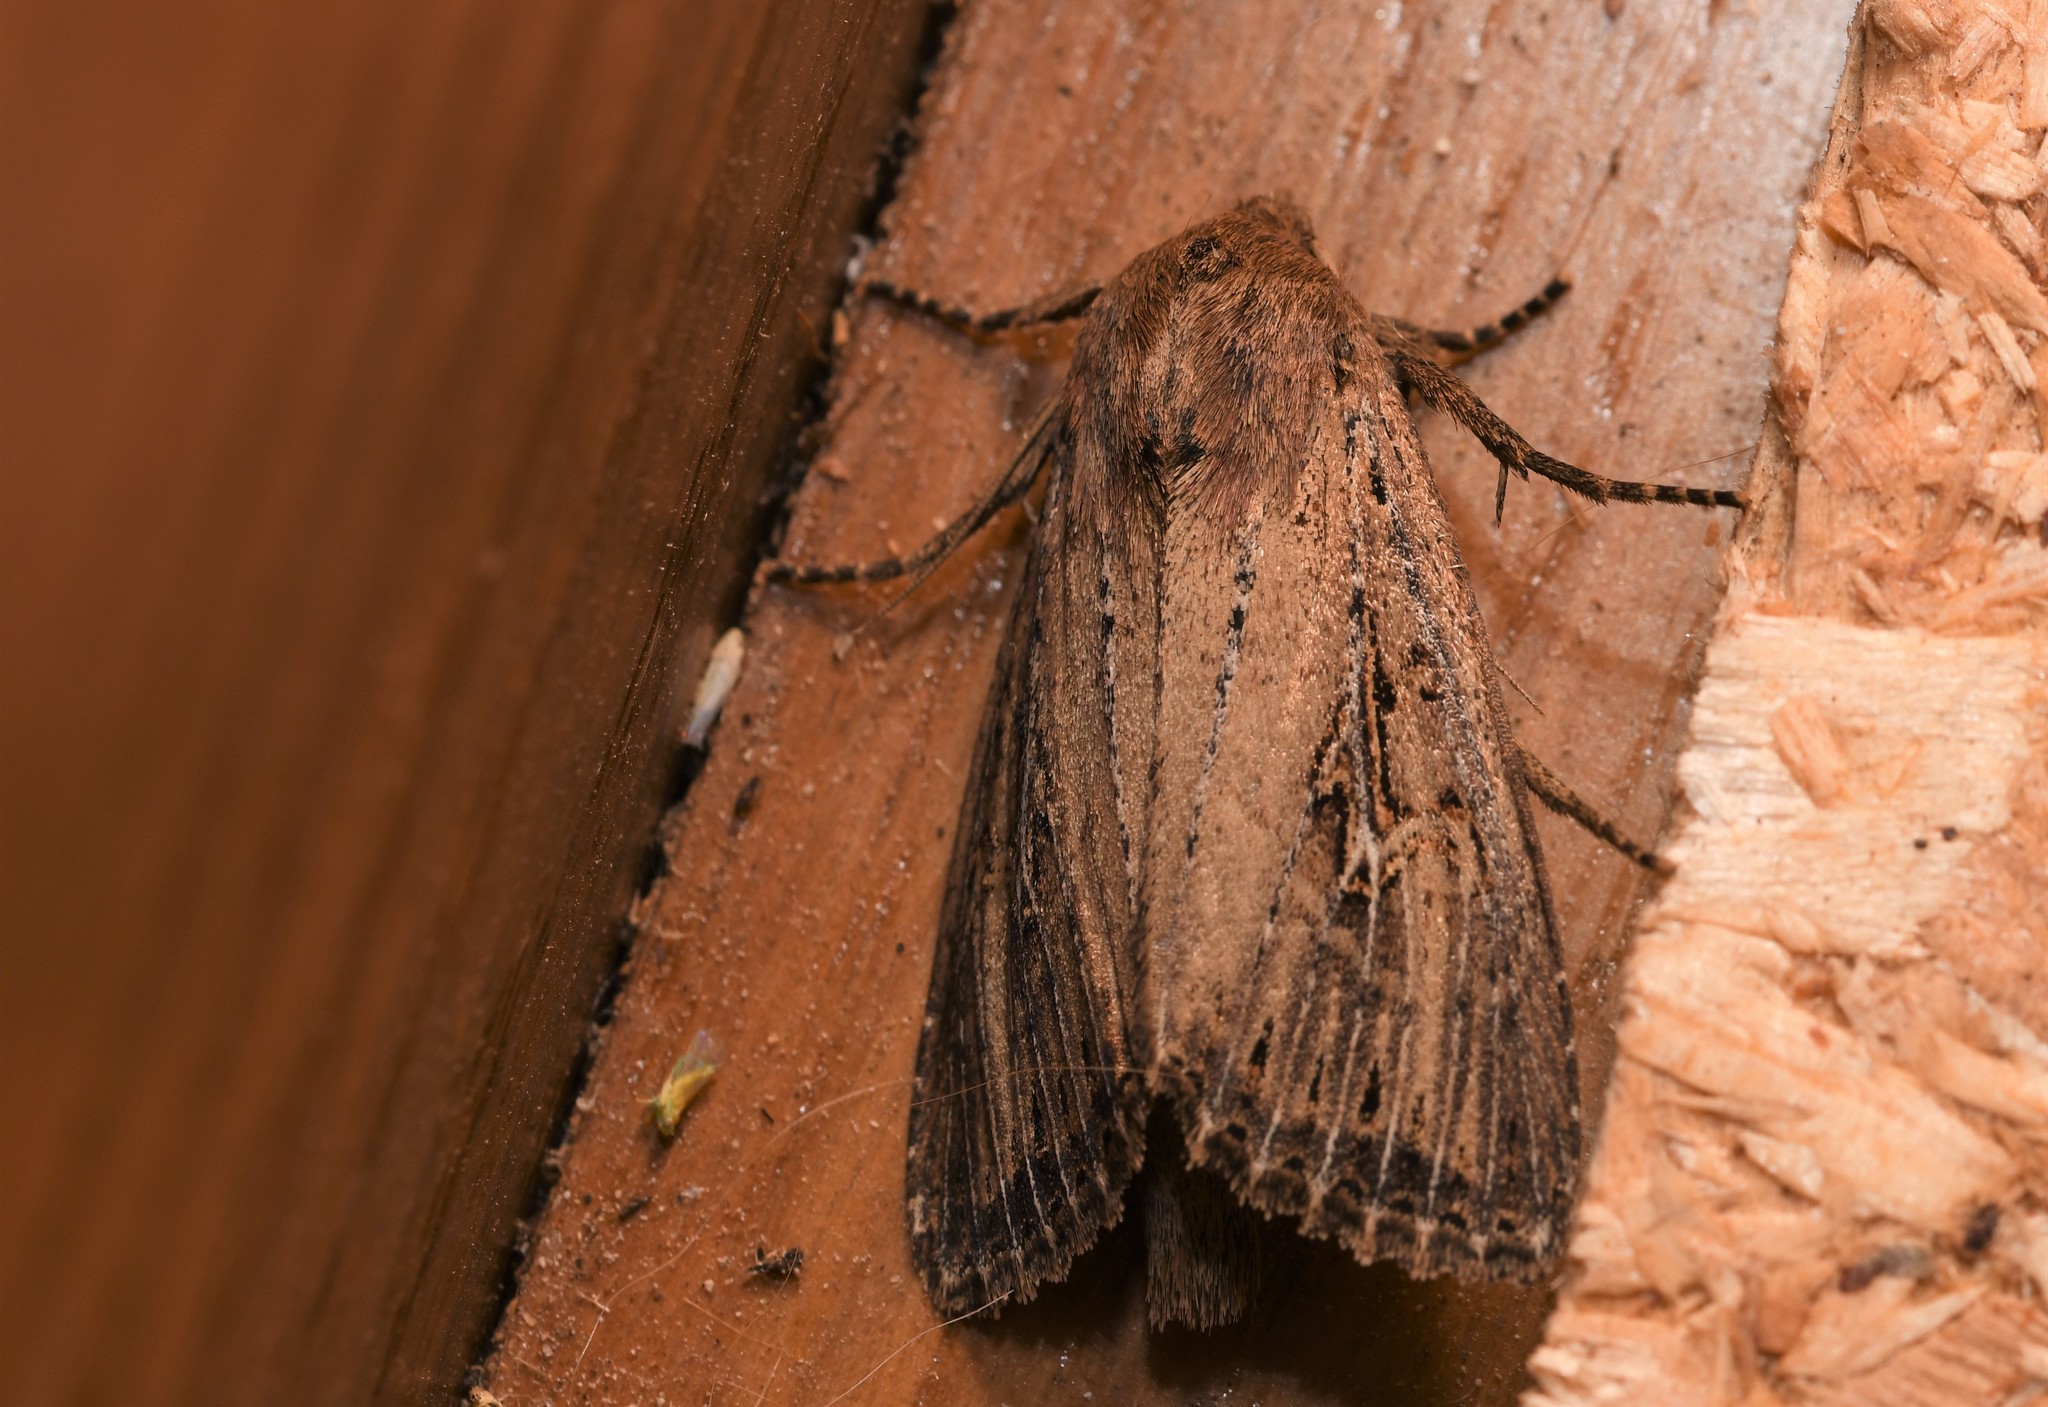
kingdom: Animalia
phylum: Arthropoda
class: Insecta
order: Lepidoptera
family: Noctuidae
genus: Nonagria
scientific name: Nonagria typhae
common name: Bulrush wainscot
